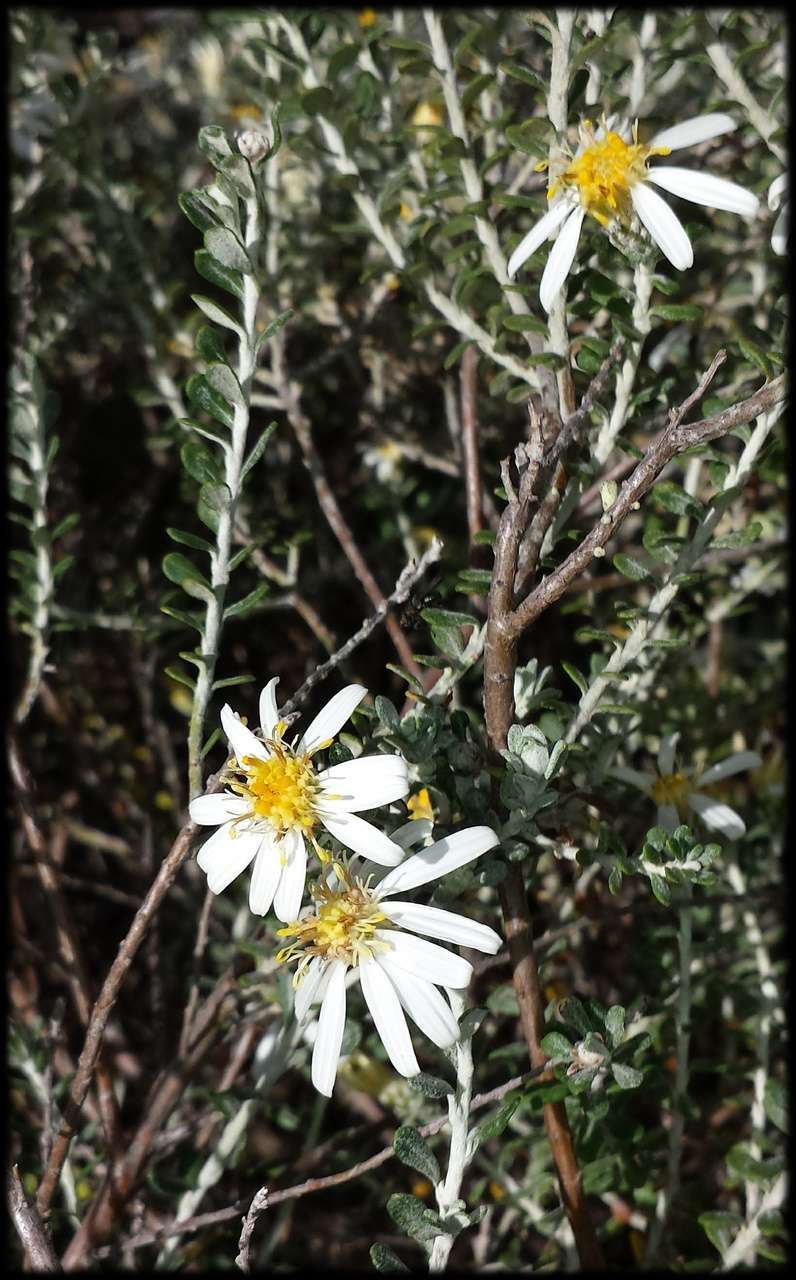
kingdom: Plantae
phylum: Tracheophyta
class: Magnoliopsida
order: Asterales
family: Asteraceae
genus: Olearia
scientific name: Olearia pimeleoides
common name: Showy daisybush
